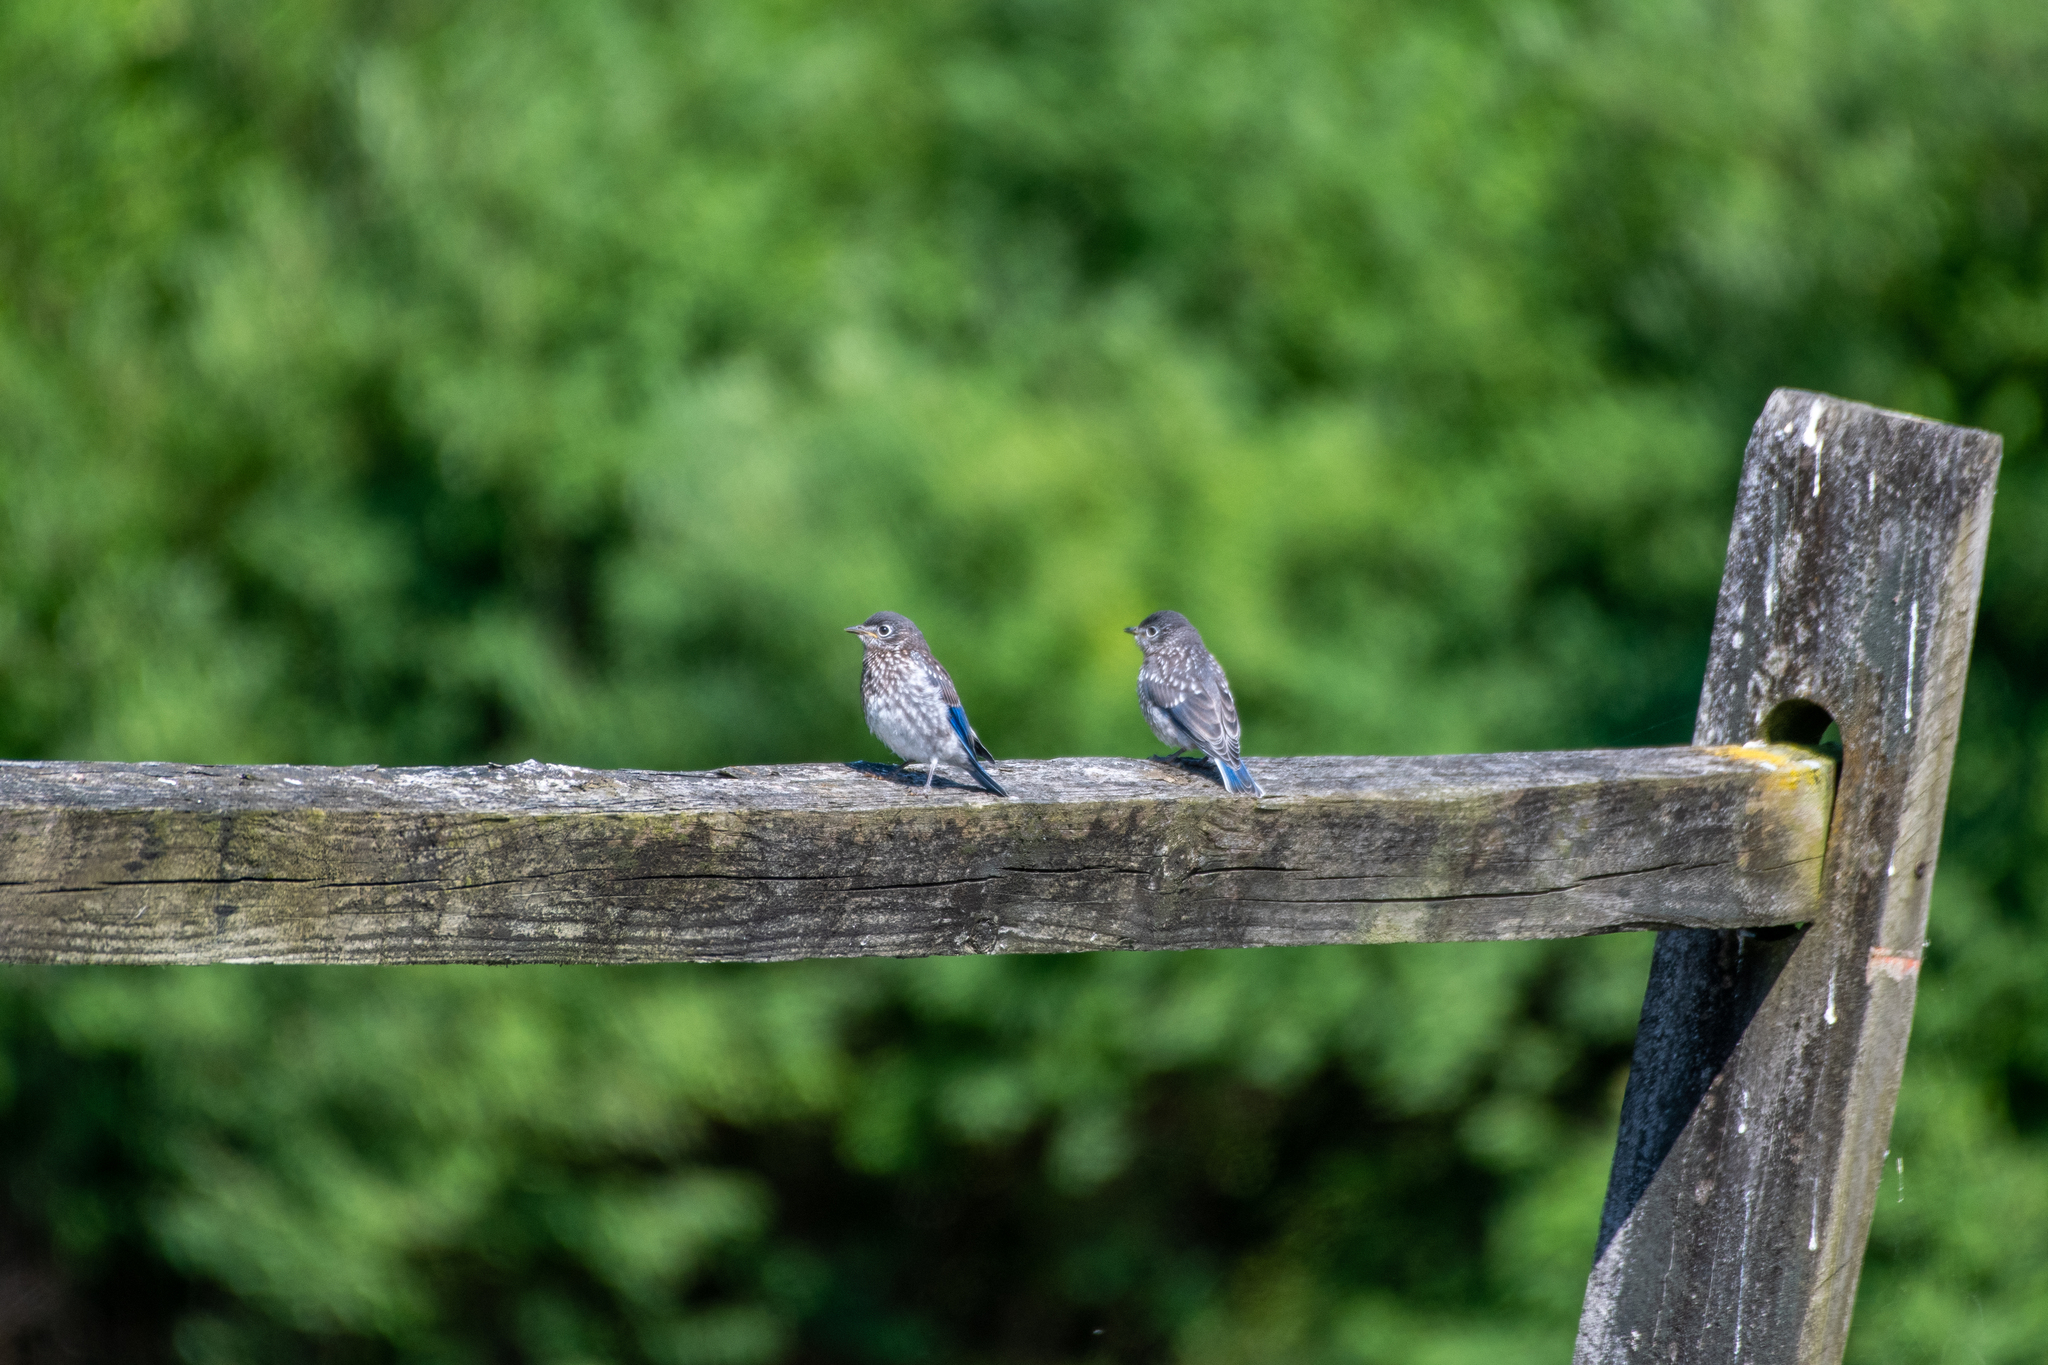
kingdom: Animalia
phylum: Chordata
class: Aves
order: Passeriformes
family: Turdidae
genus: Sialia
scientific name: Sialia sialis
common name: Eastern bluebird
